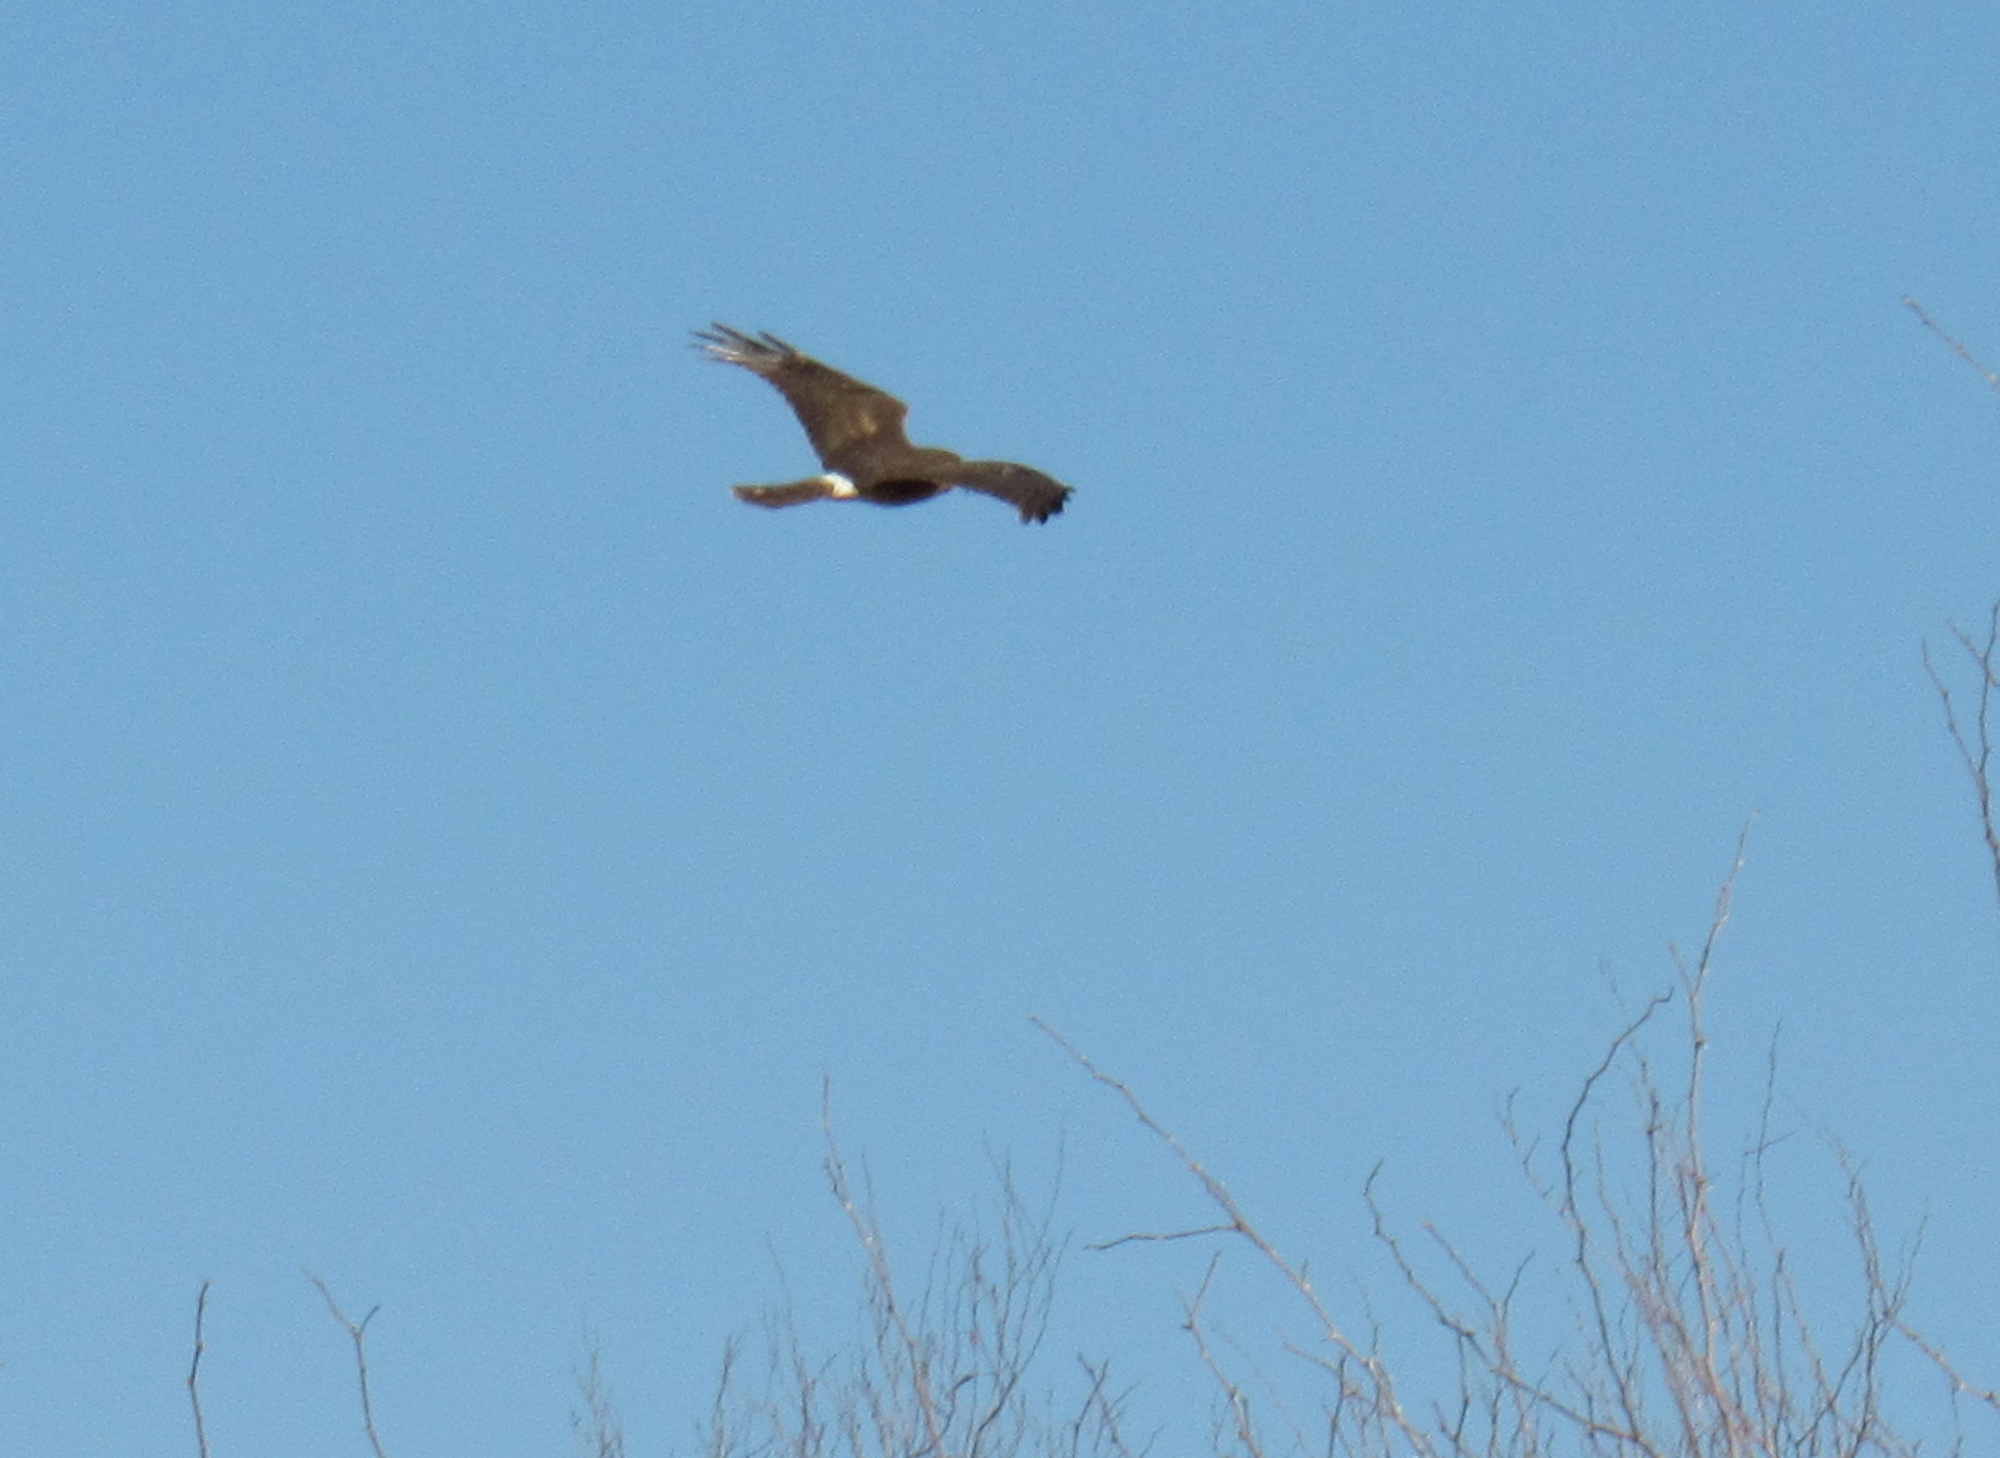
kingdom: Animalia
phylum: Chordata
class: Aves
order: Accipitriformes
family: Accipitridae
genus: Circus
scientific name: Circus cyaneus
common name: Hen harrier
